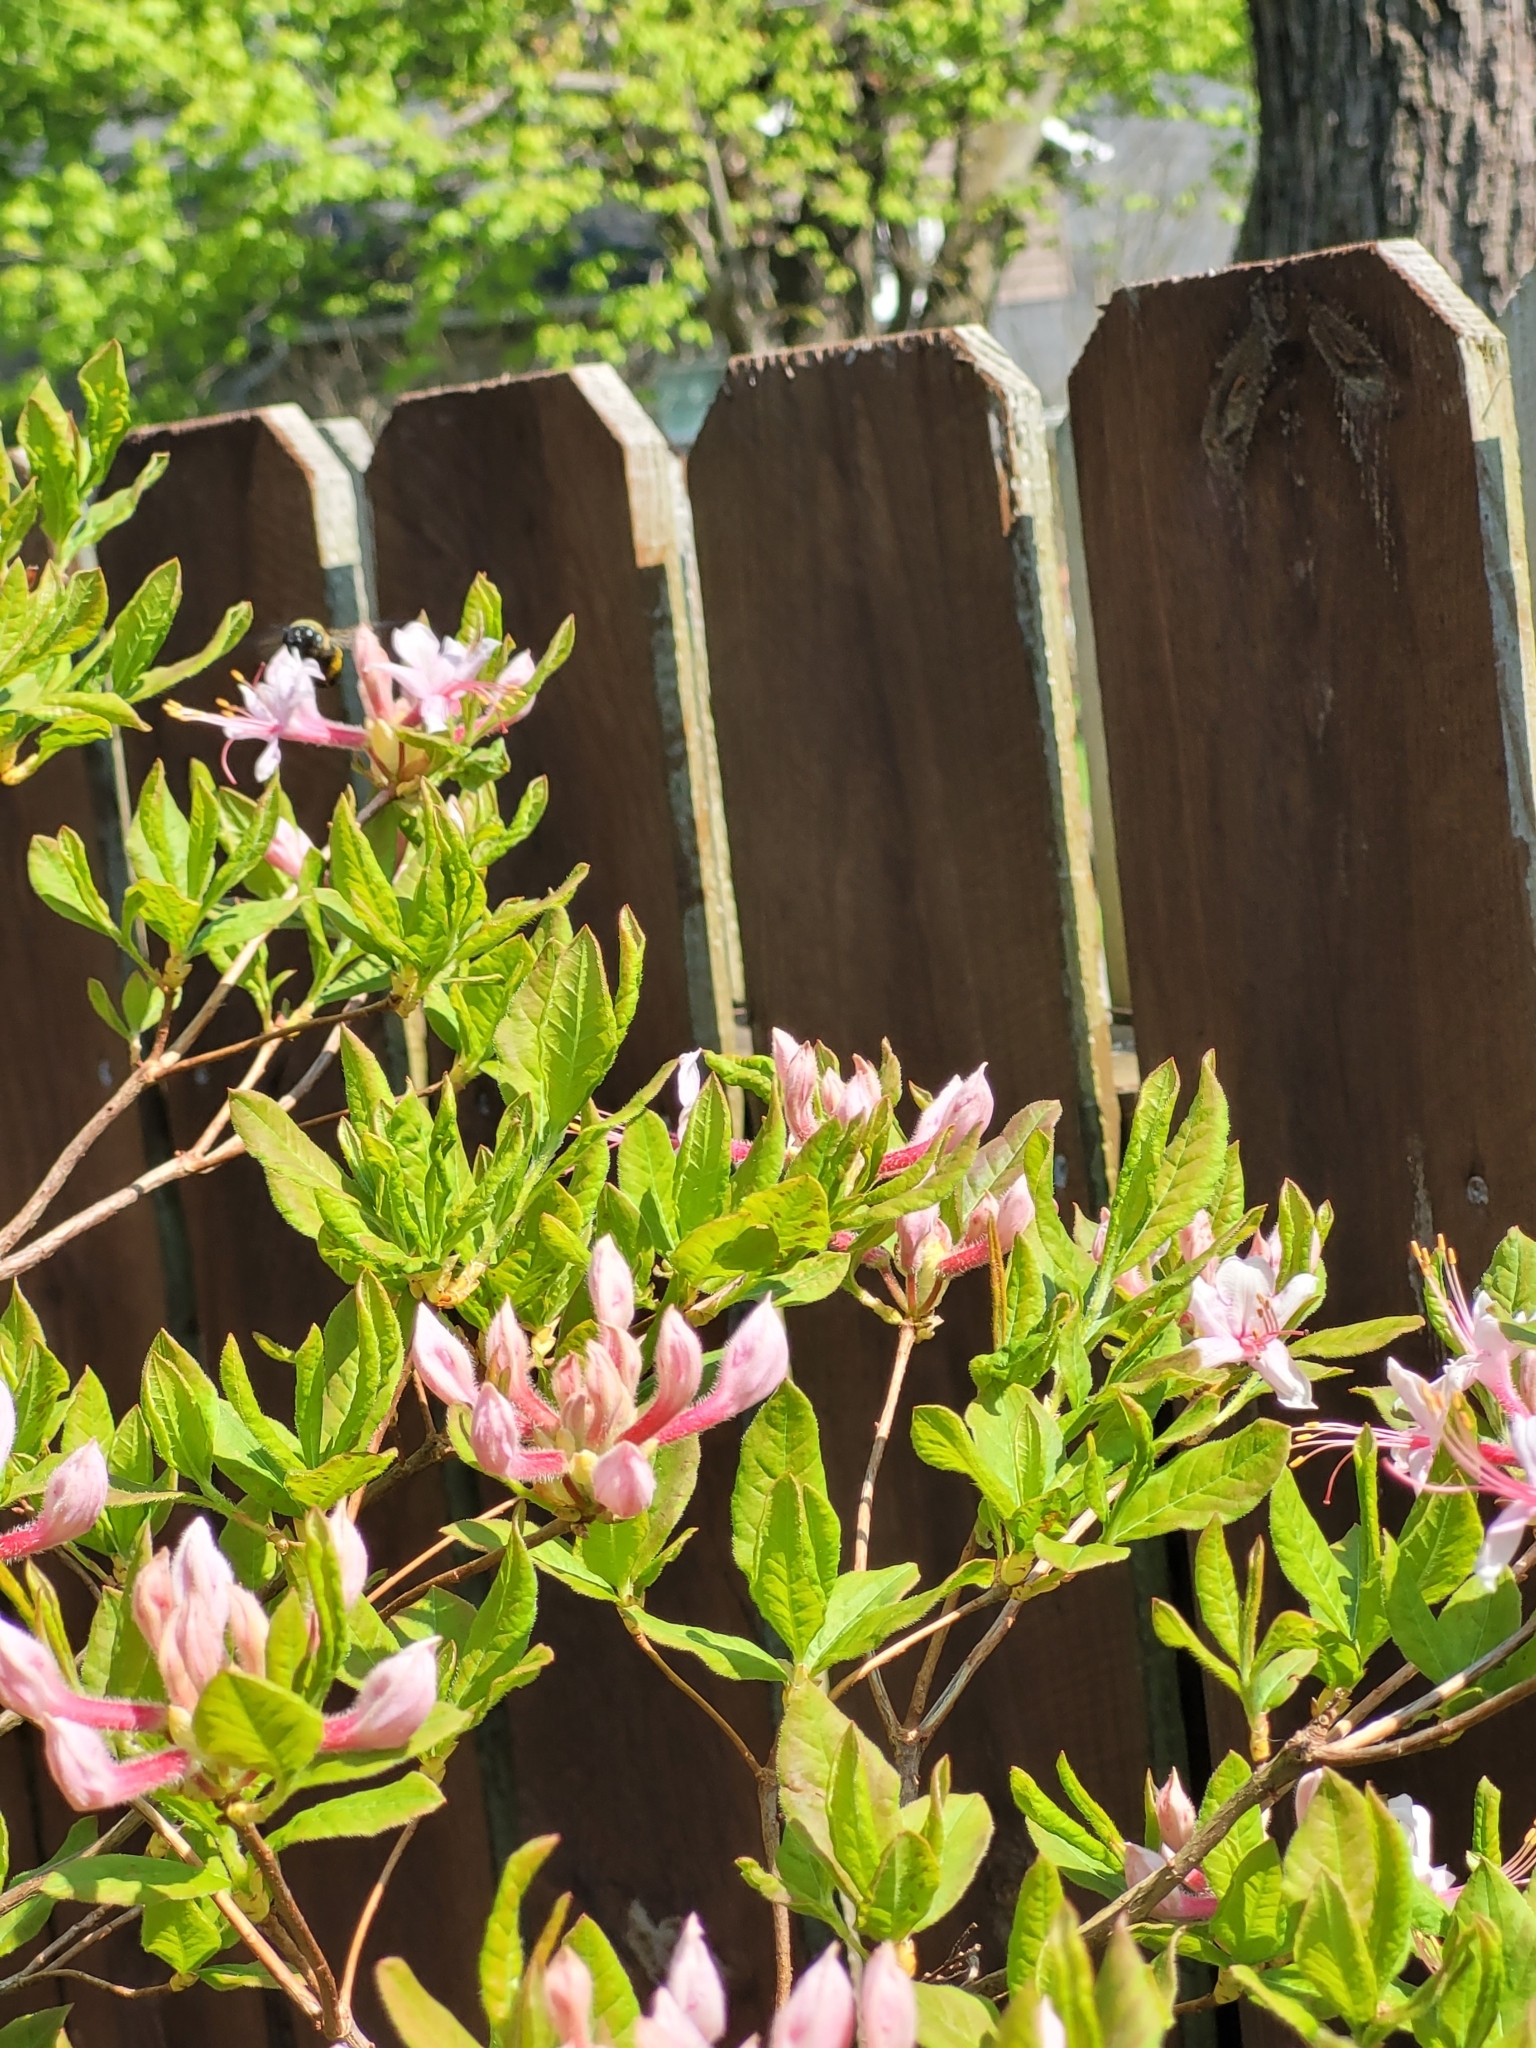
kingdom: Animalia
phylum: Arthropoda
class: Insecta
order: Hymenoptera
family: Apidae
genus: Xylocopa
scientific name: Xylocopa virginica
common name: Carpenter bee
